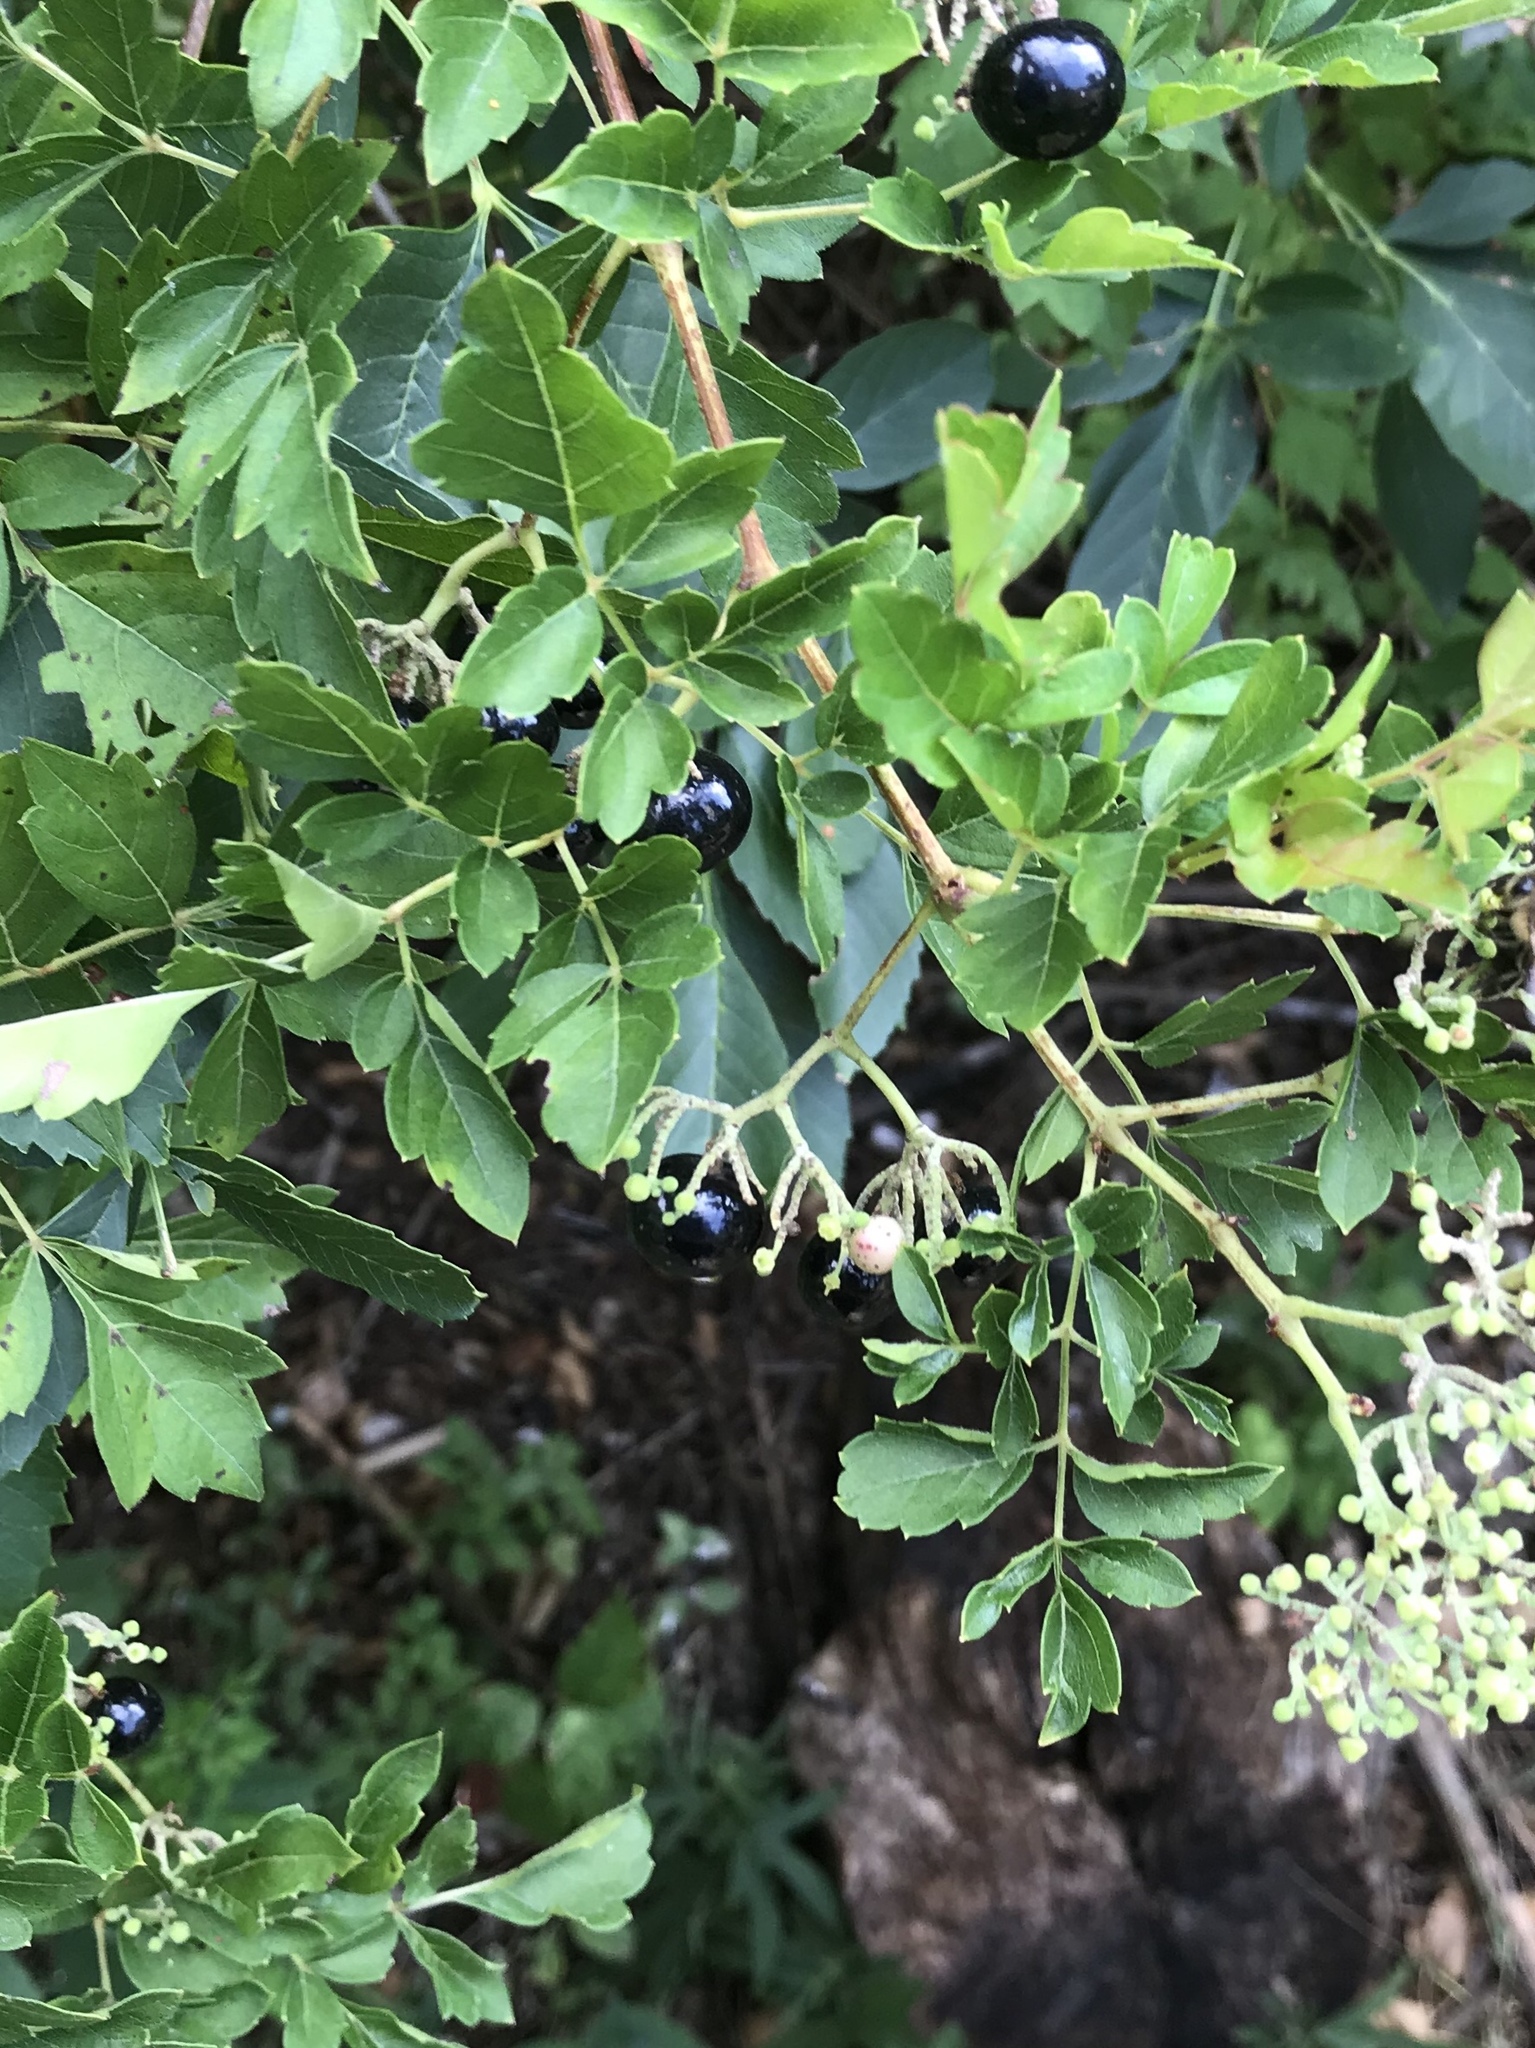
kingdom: Plantae
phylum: Tracheophyta
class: Magnoliopsida
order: Vitales
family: Vitaceae
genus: Nekemias
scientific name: Nekemias arborea
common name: Peppervine
